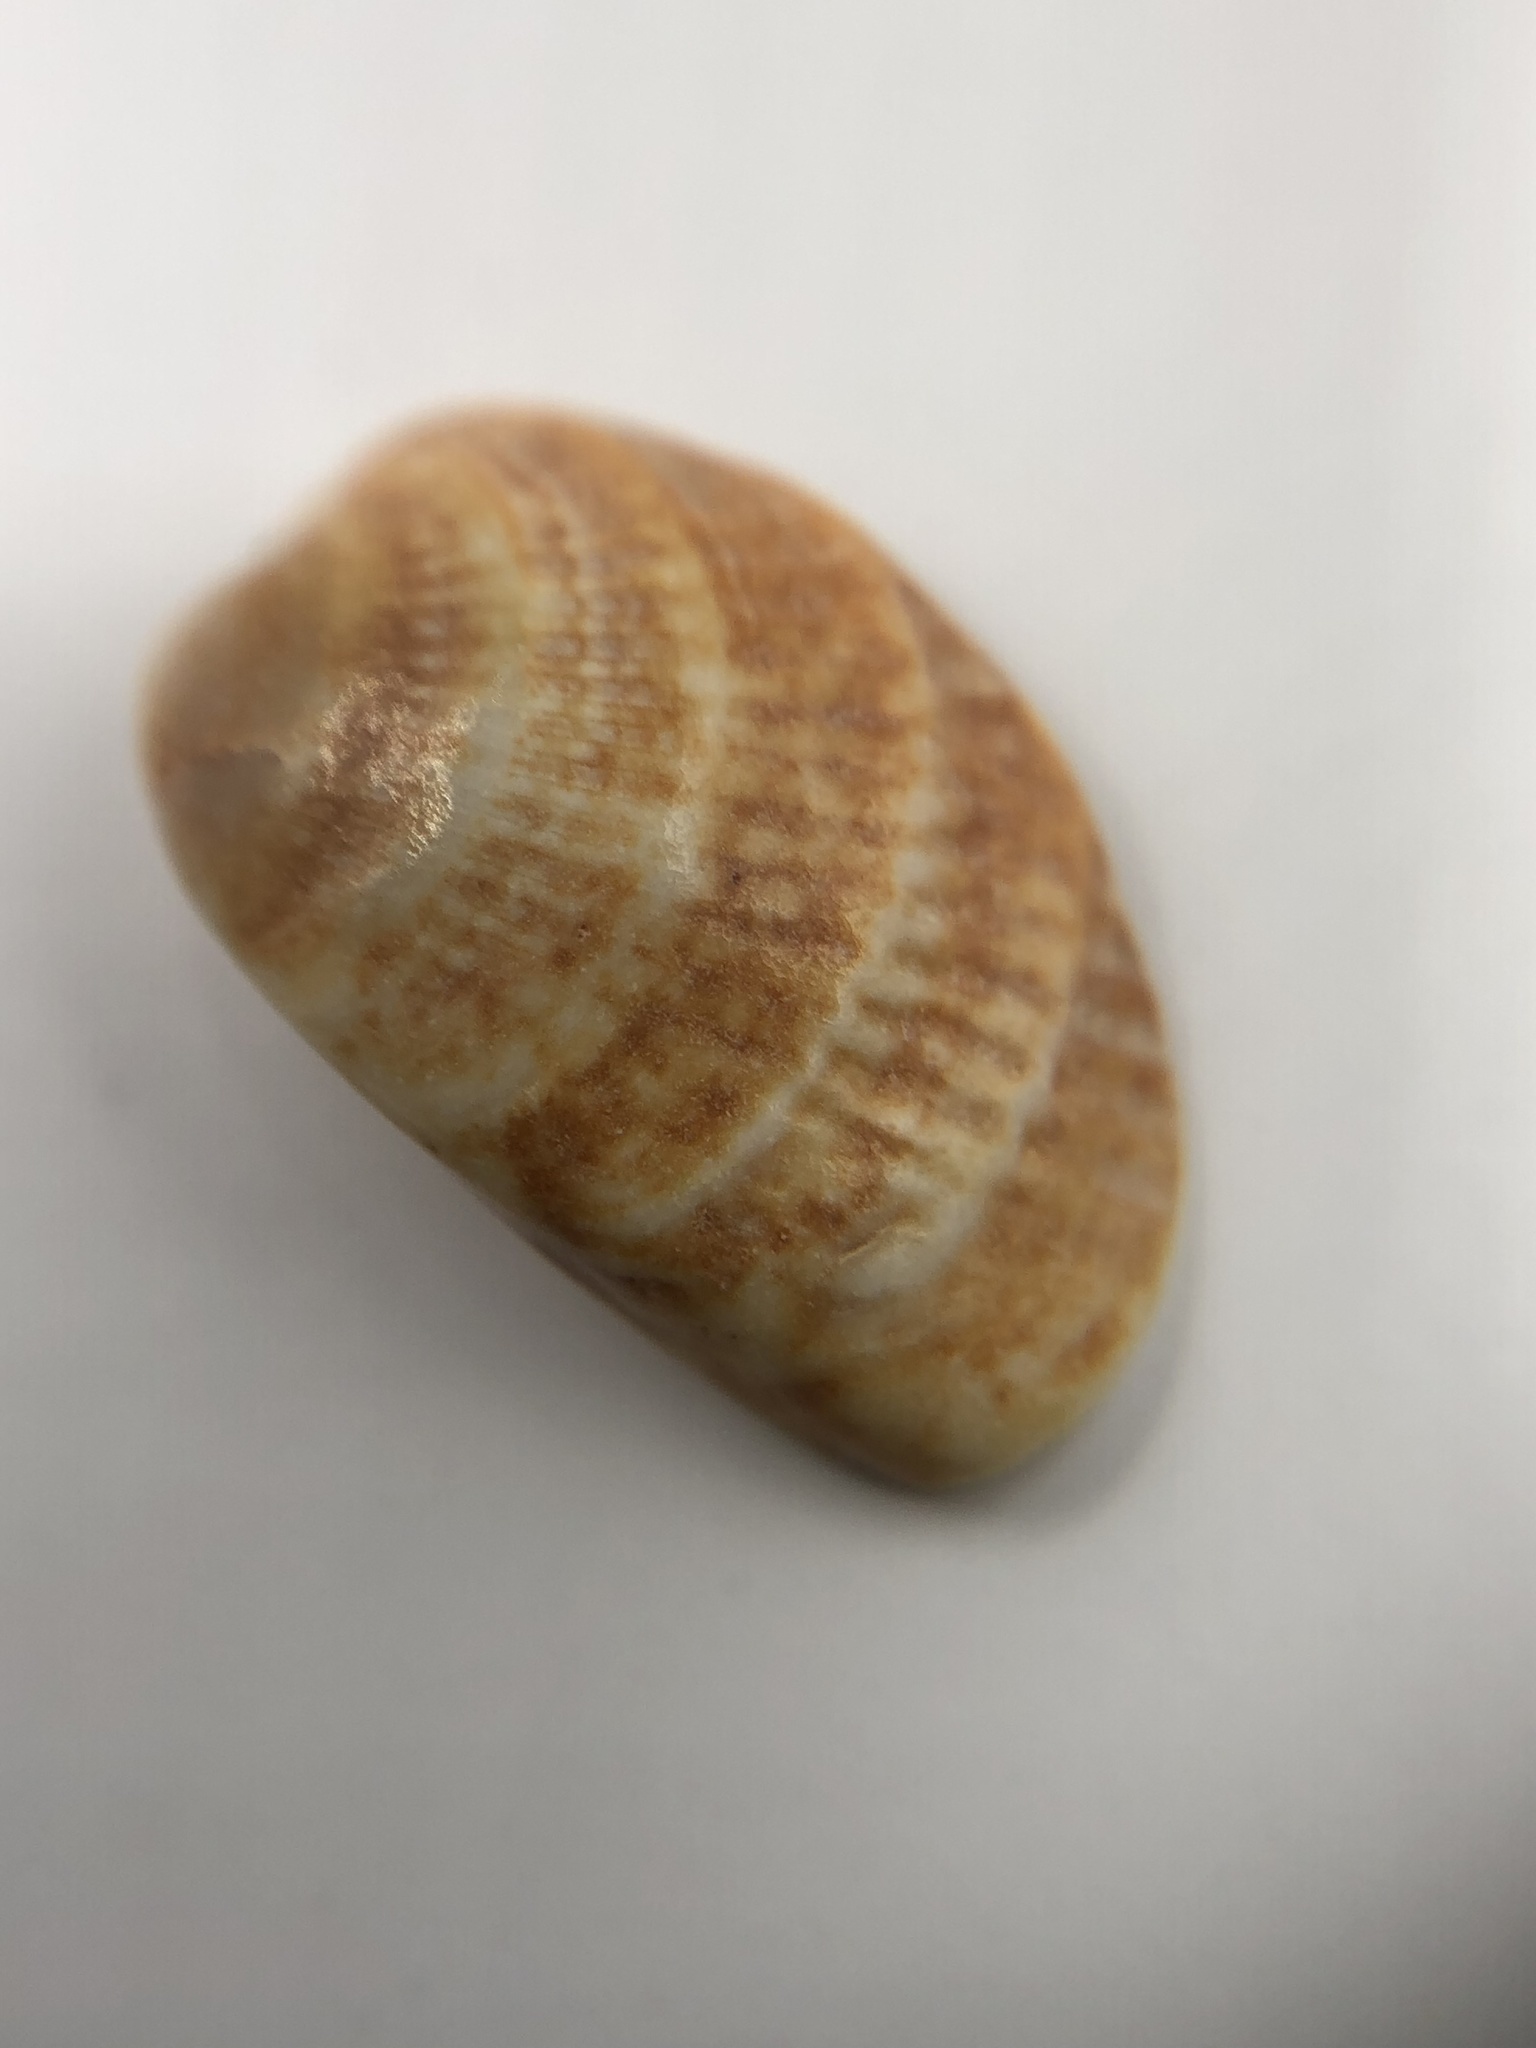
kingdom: Animalia
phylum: Mollusca
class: Bivalvia
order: Venerida
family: Veneridae
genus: Chione
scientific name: Chione elevata
